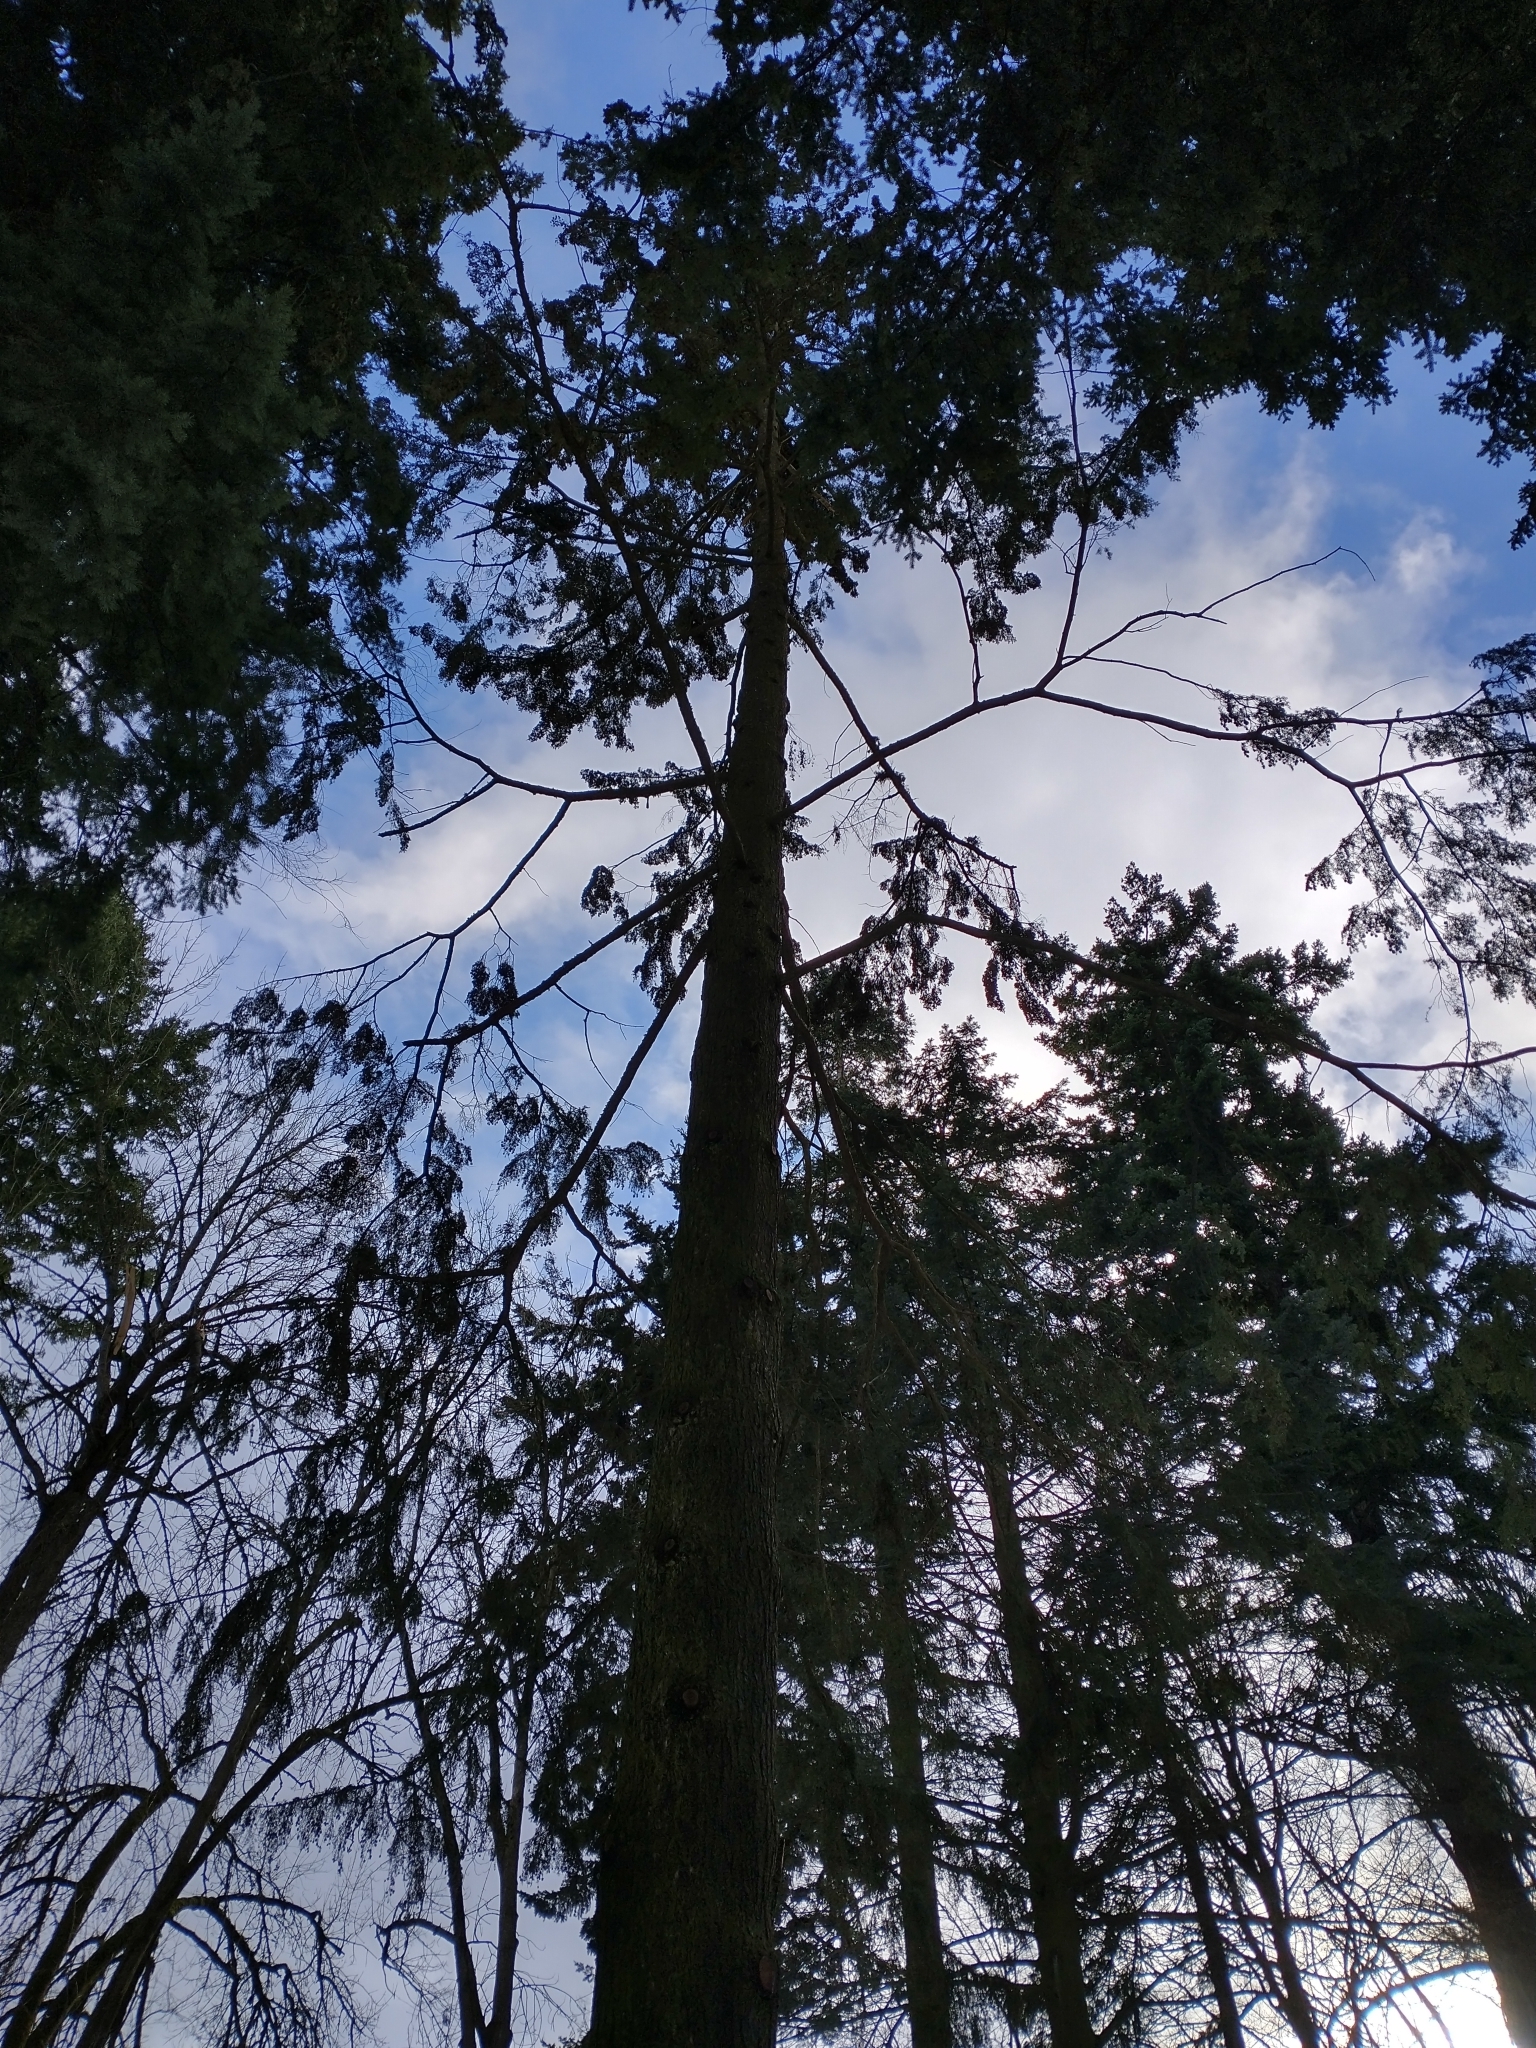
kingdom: Plantae
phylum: Tracheophyta
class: Pinopsida
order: Pinales
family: Pinaceae
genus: Tsuga
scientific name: Tsuga heterophylla
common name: Western hemlock
